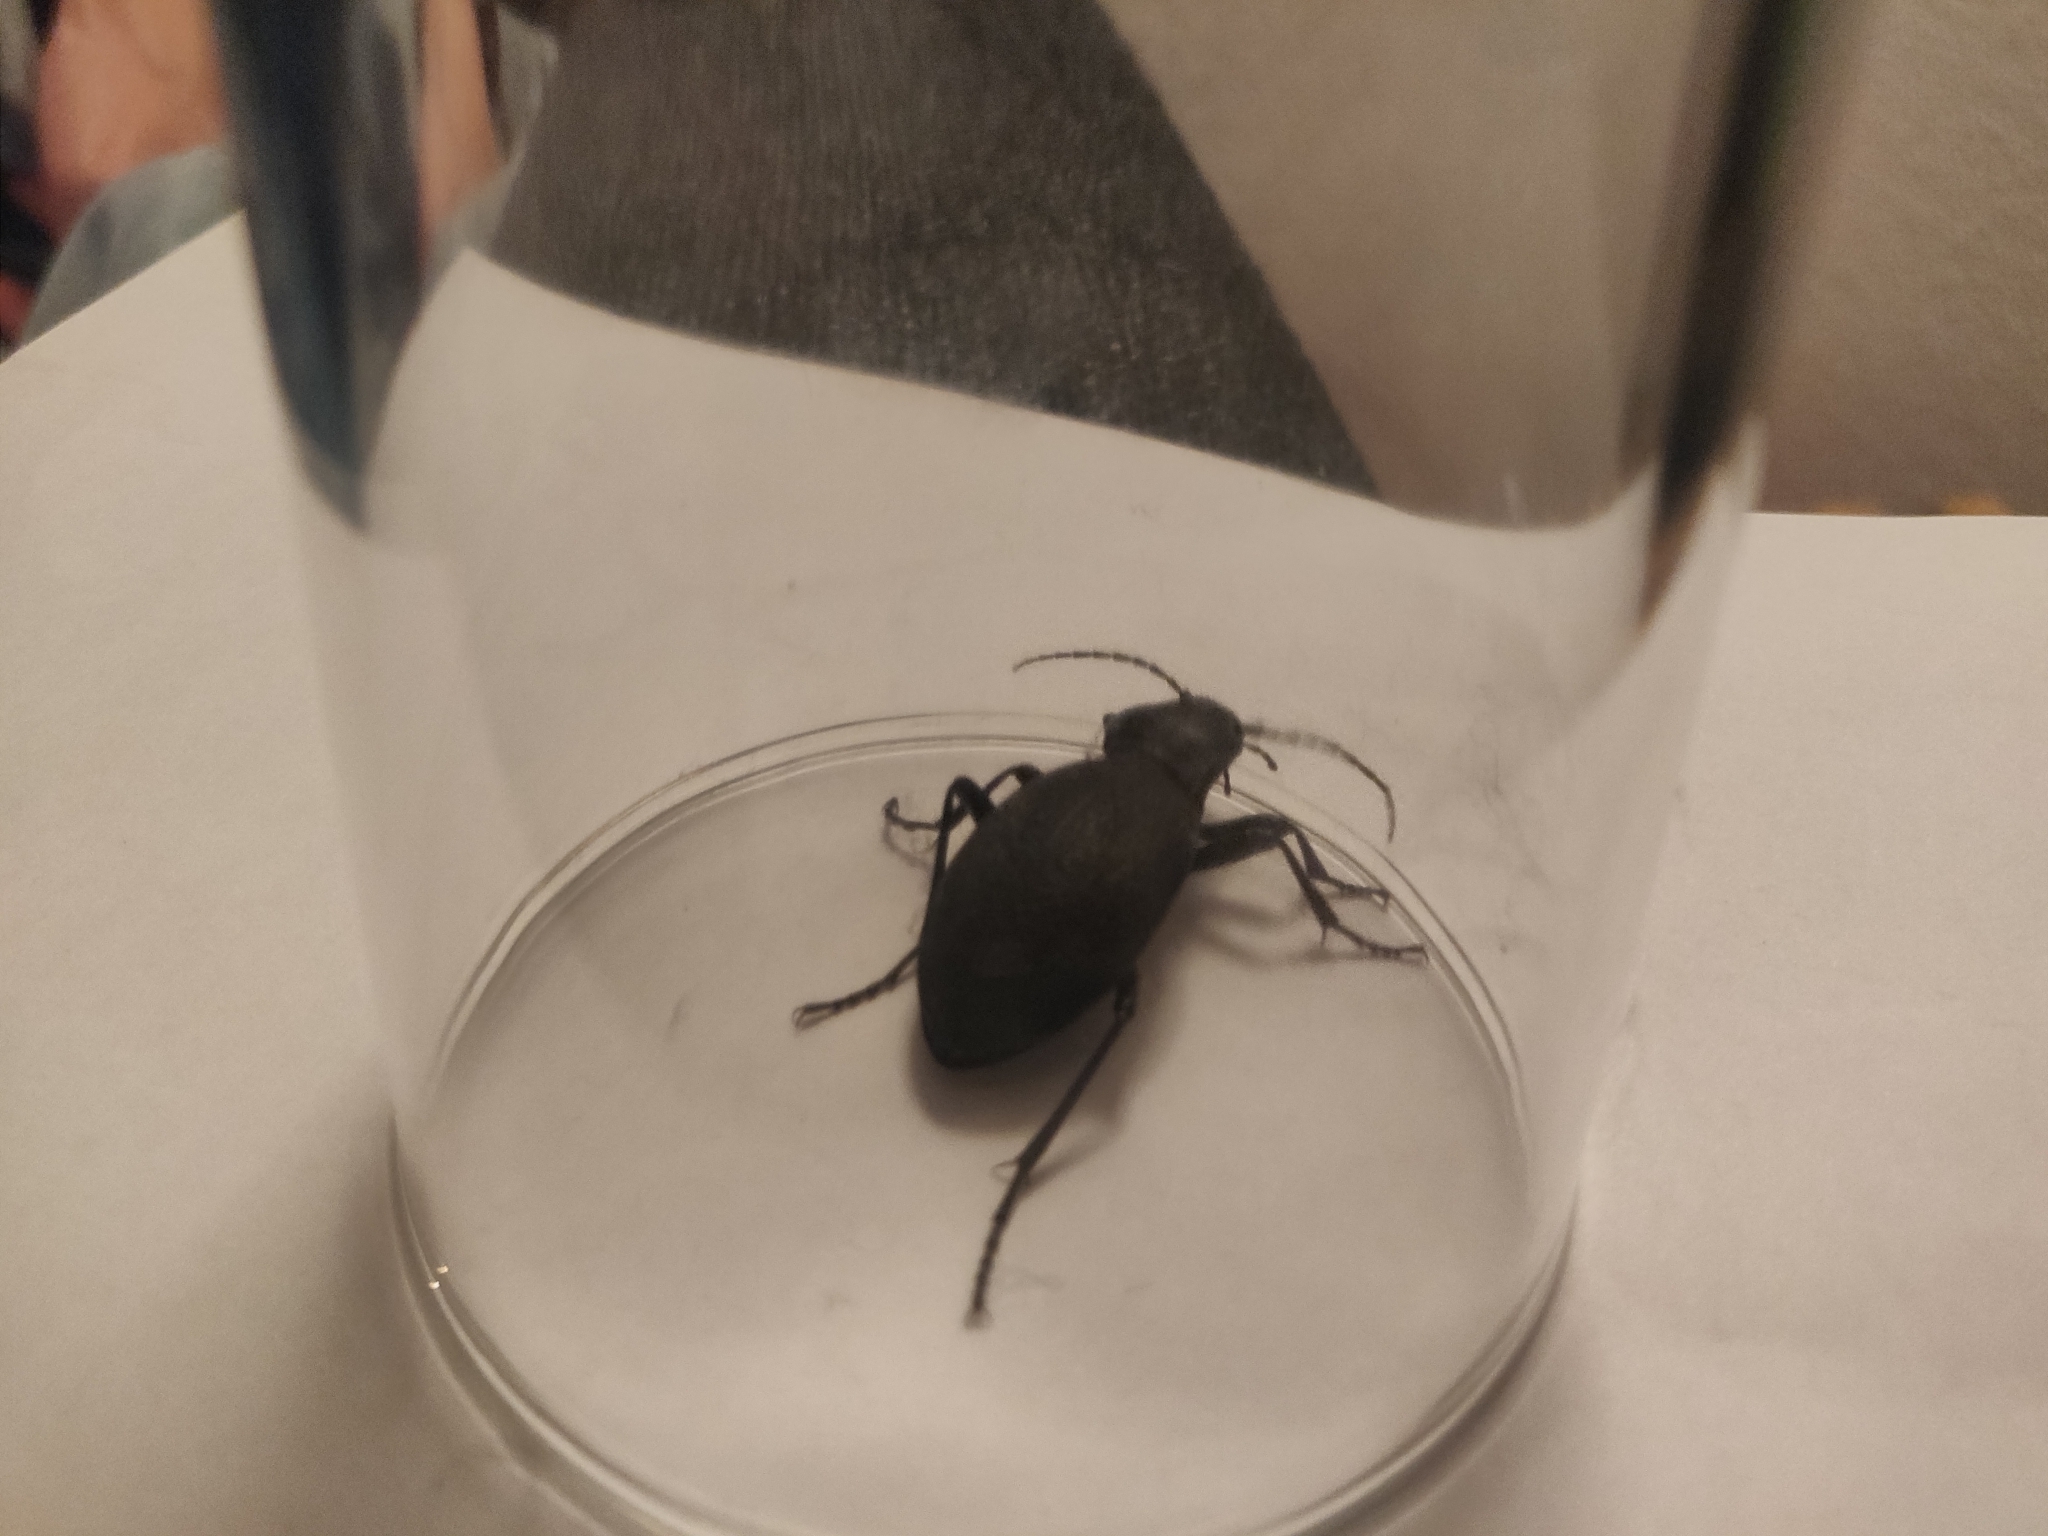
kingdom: Animalia
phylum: Arthropoda
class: Insecta
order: Coleoptera
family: Carabidae
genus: Carabus
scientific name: Carabus coriaceus
